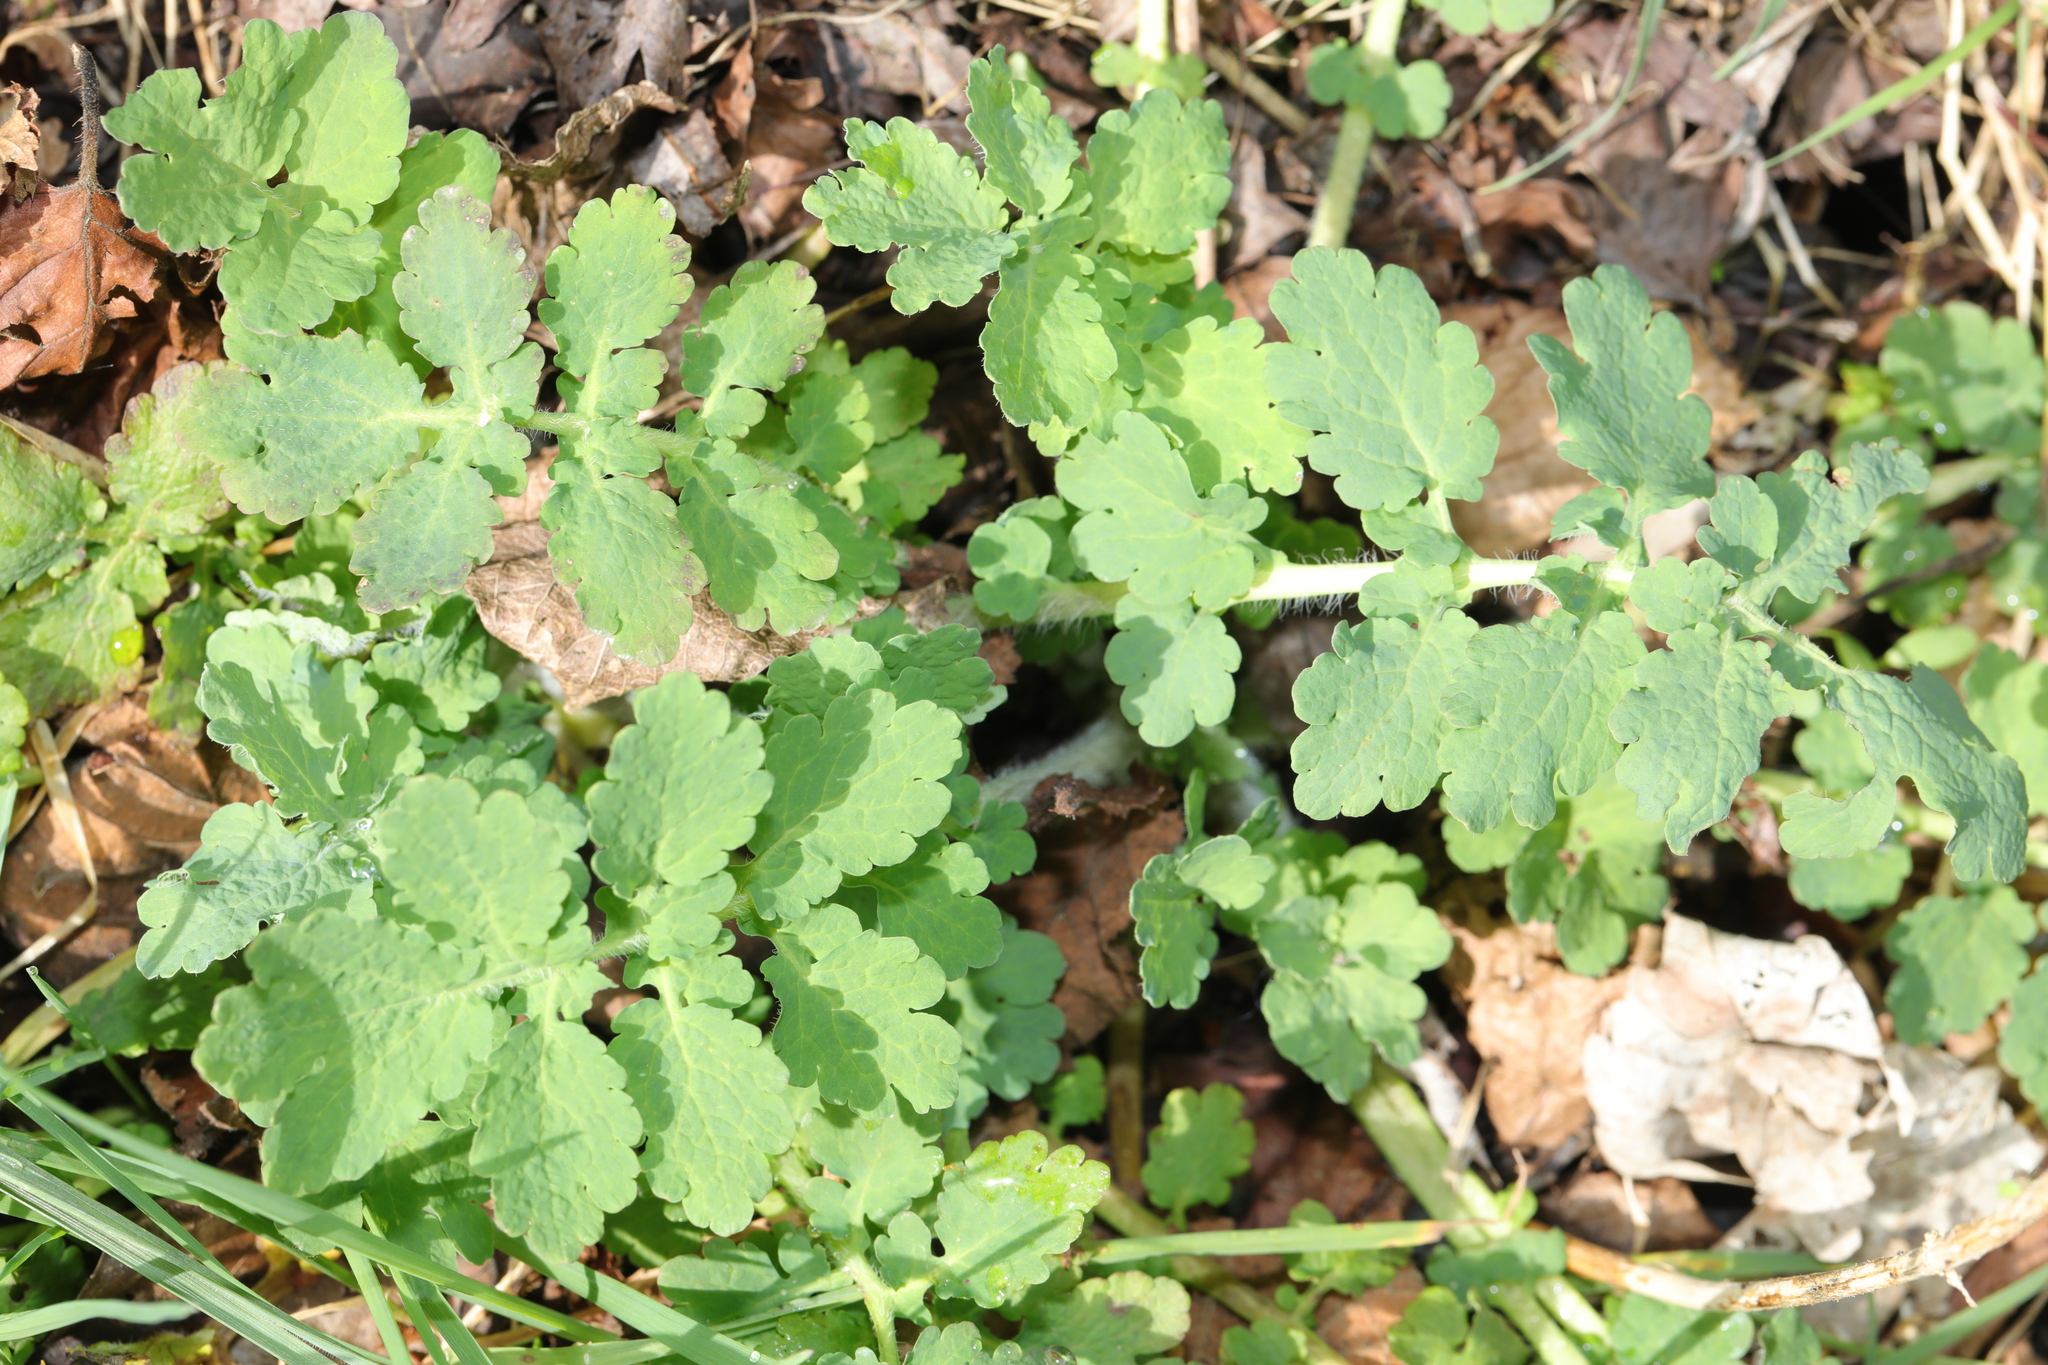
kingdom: Plantae
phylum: Tracheophyta
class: Magnoliopsida
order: Ranunculales
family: Papaveraceae
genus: Chelidonium
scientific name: Chelidonium majus
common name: Greater celandine
